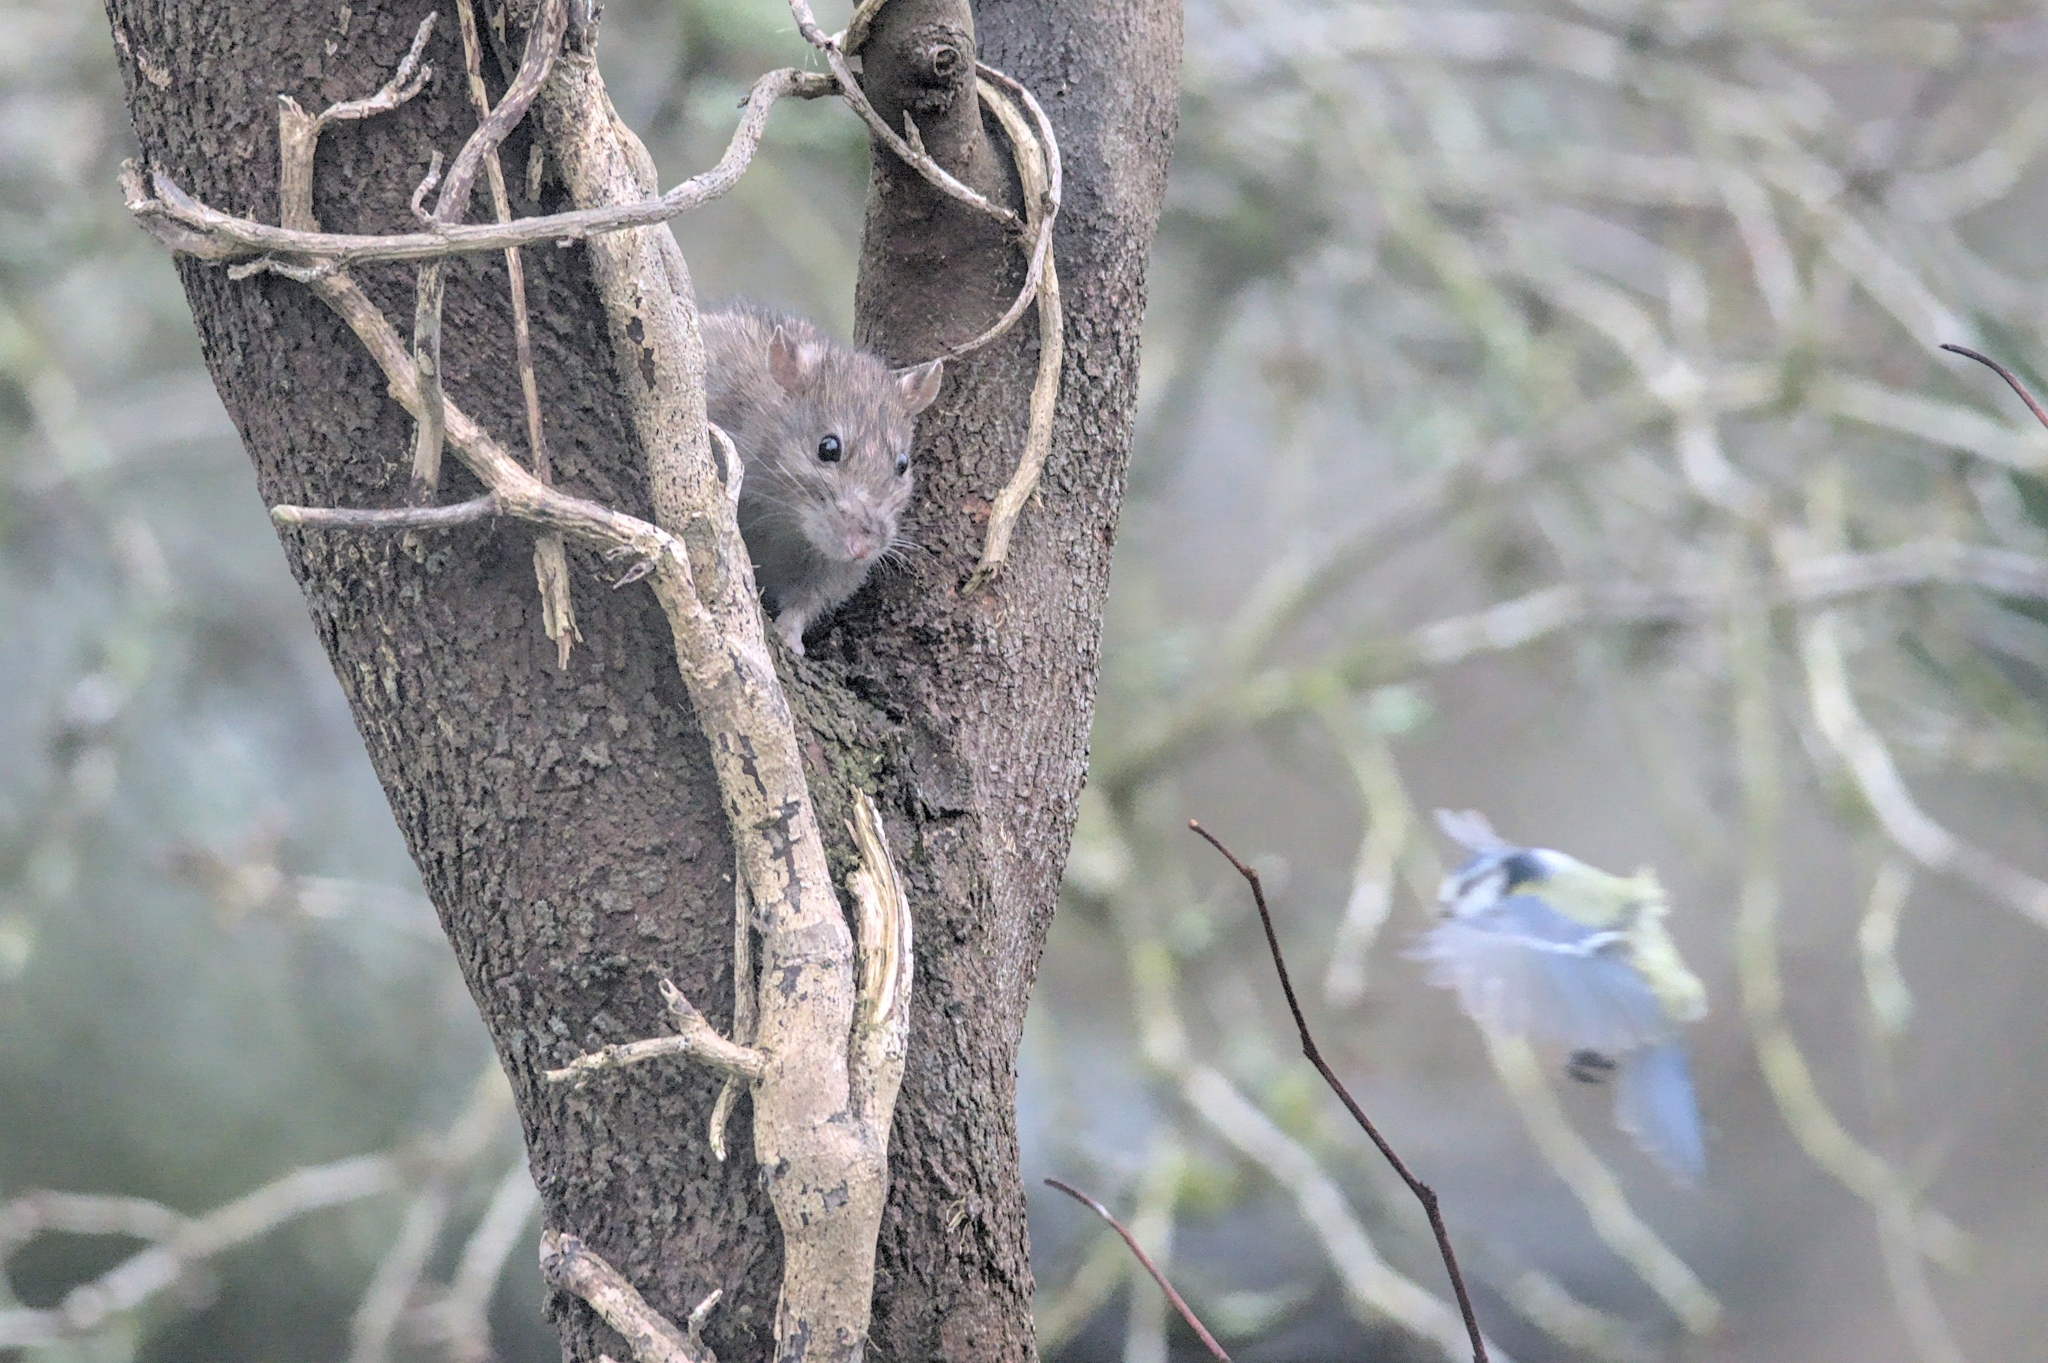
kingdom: Animalia
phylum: Chordata
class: Mammalia
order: Rodentia
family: Muridae
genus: Rattus
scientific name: Rattus norvegicus
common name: Brown rat
